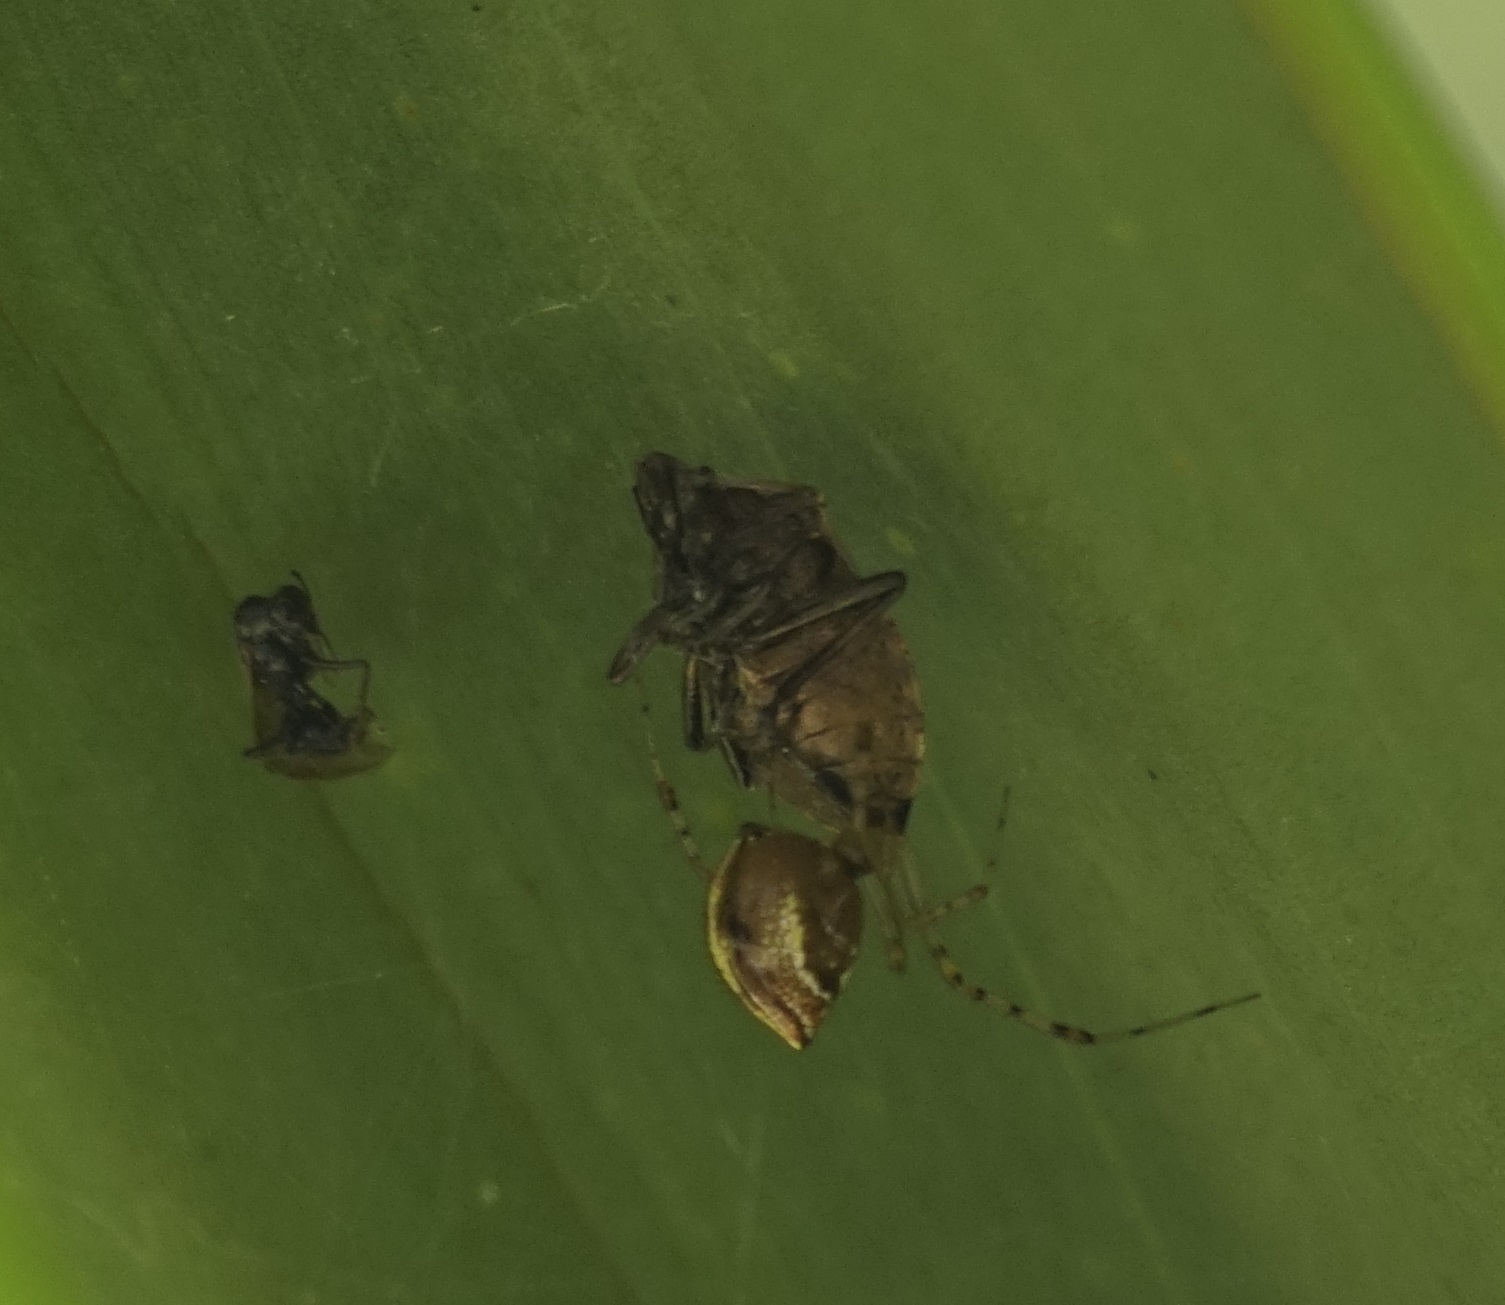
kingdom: Animalia
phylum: Arthropoda
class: Arachnida
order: Araneae
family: Theridiidae
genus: Theridion
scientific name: Theridion pyramidale
